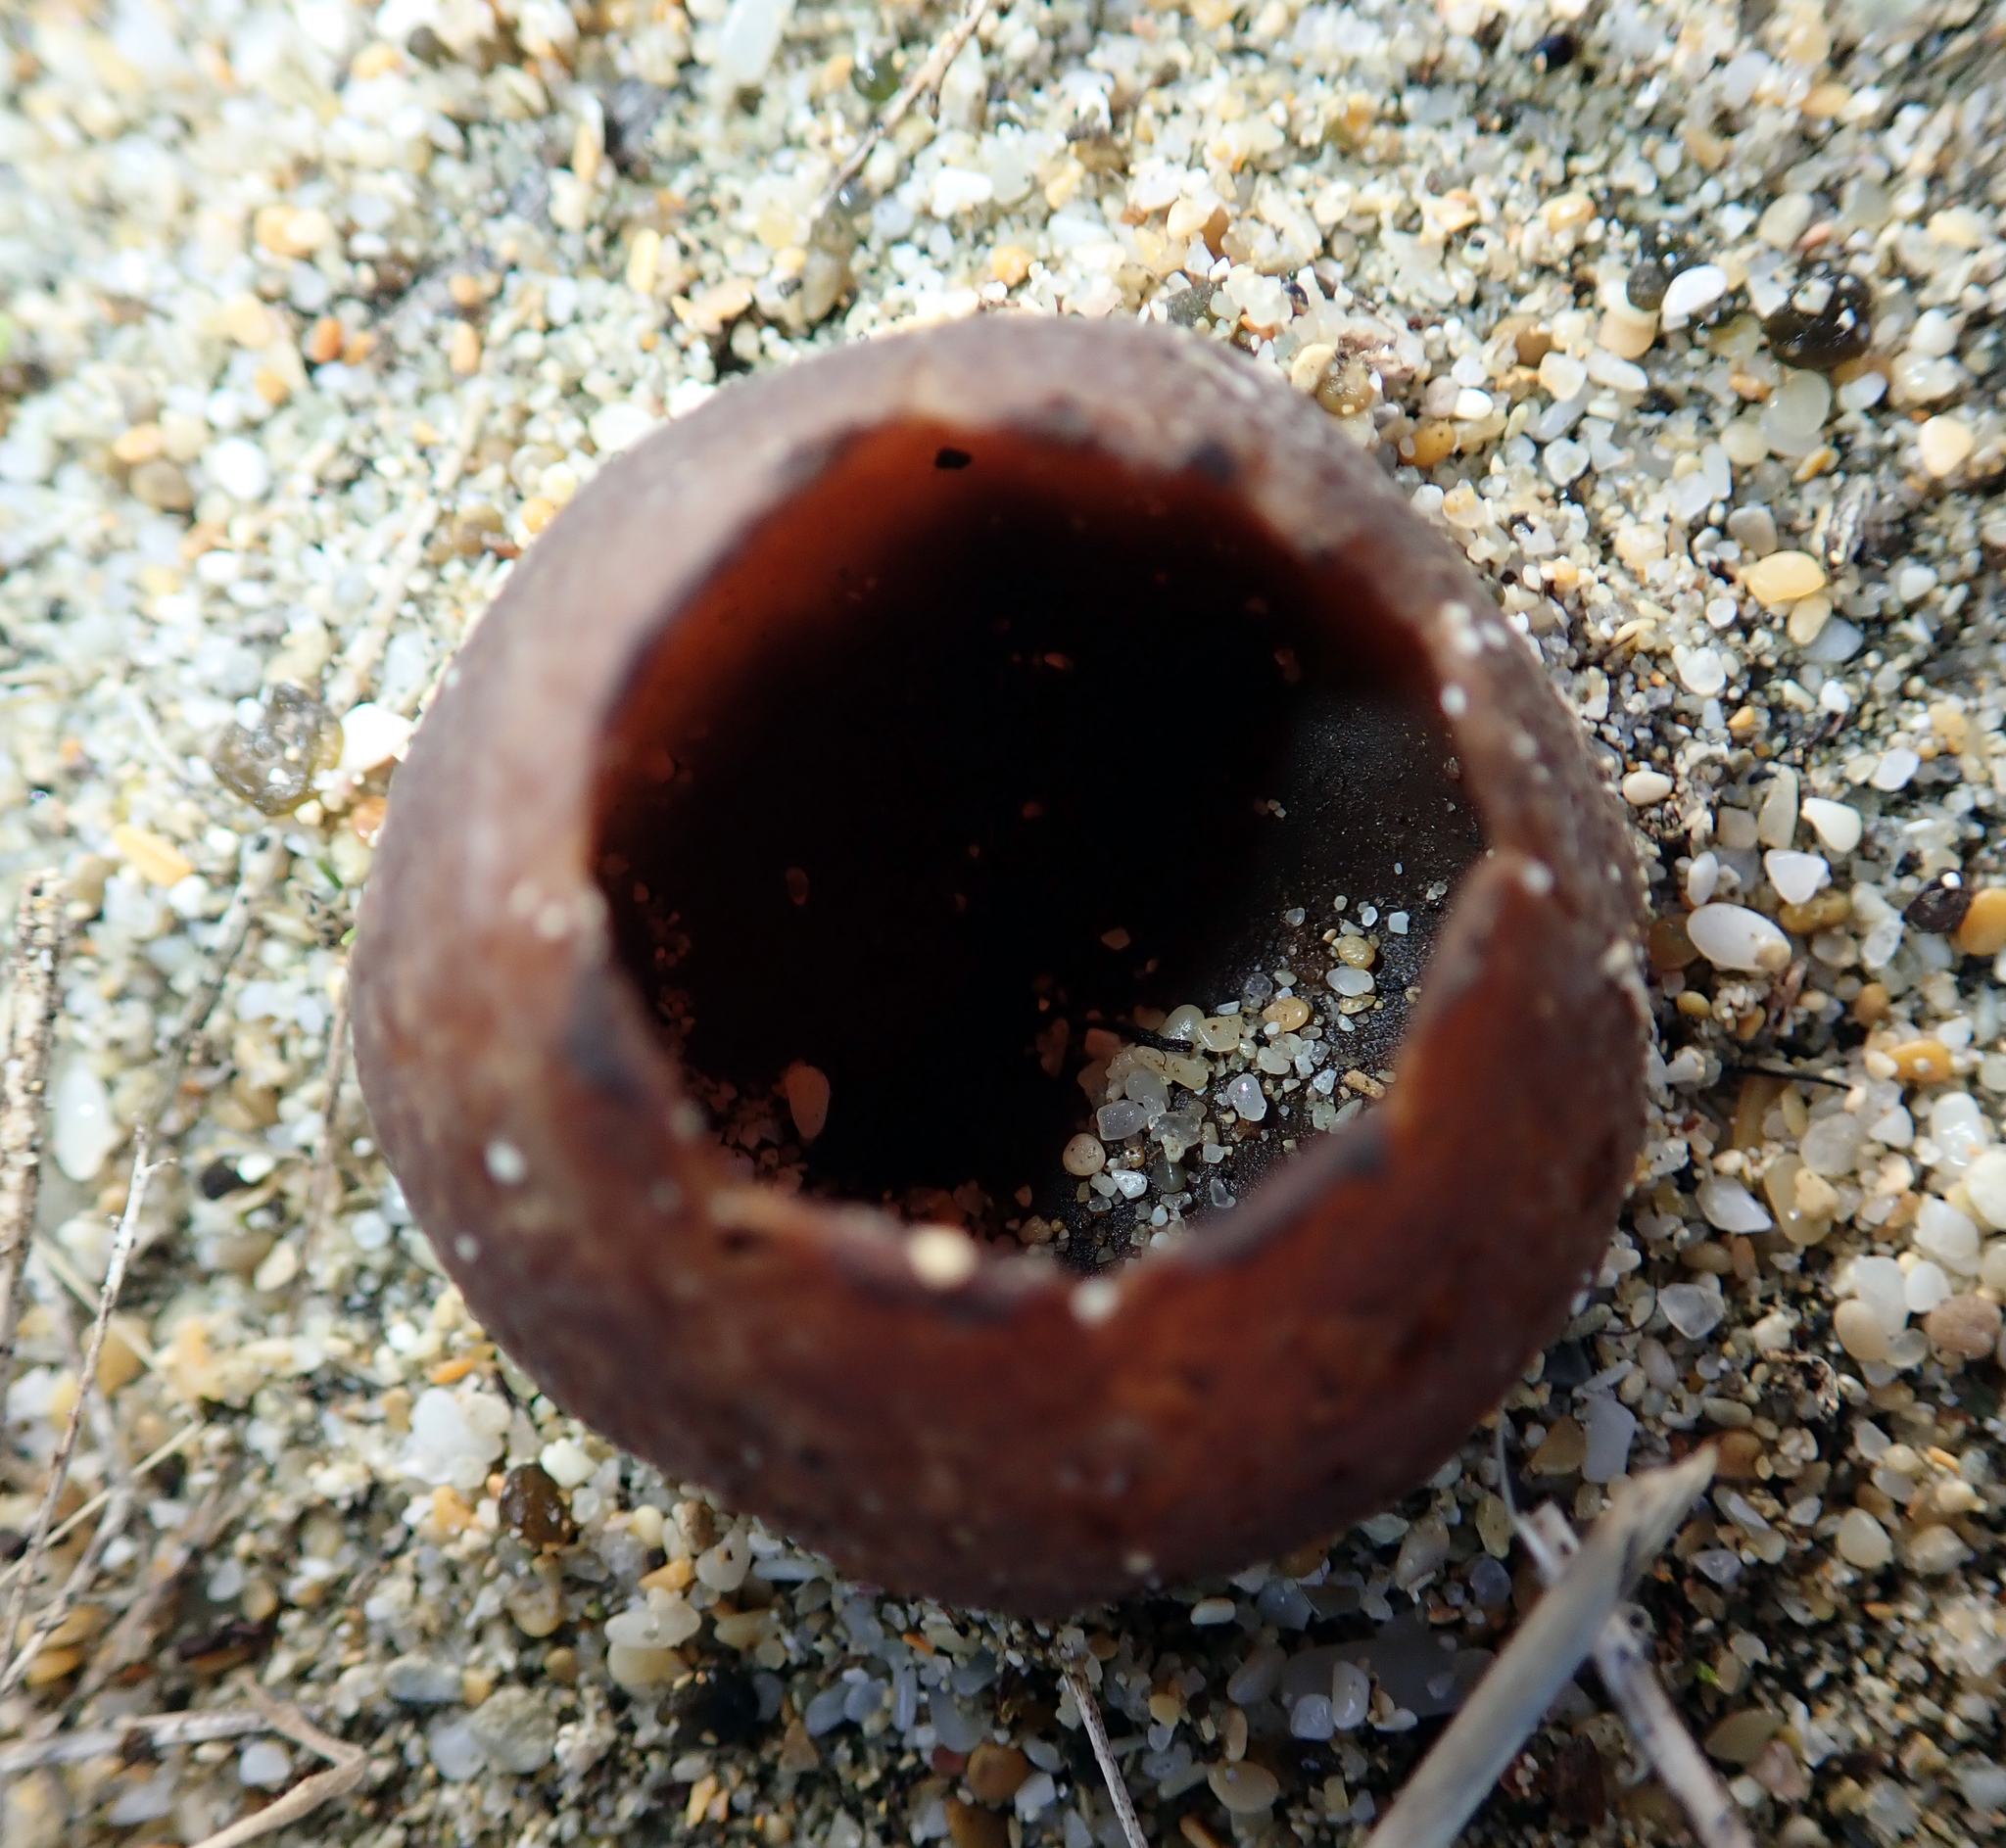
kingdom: Fungi
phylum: Ascomycota
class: Pezizomycetes
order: Pezizales
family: Pezizaceae
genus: Peziza
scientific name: Peziza oceanica
